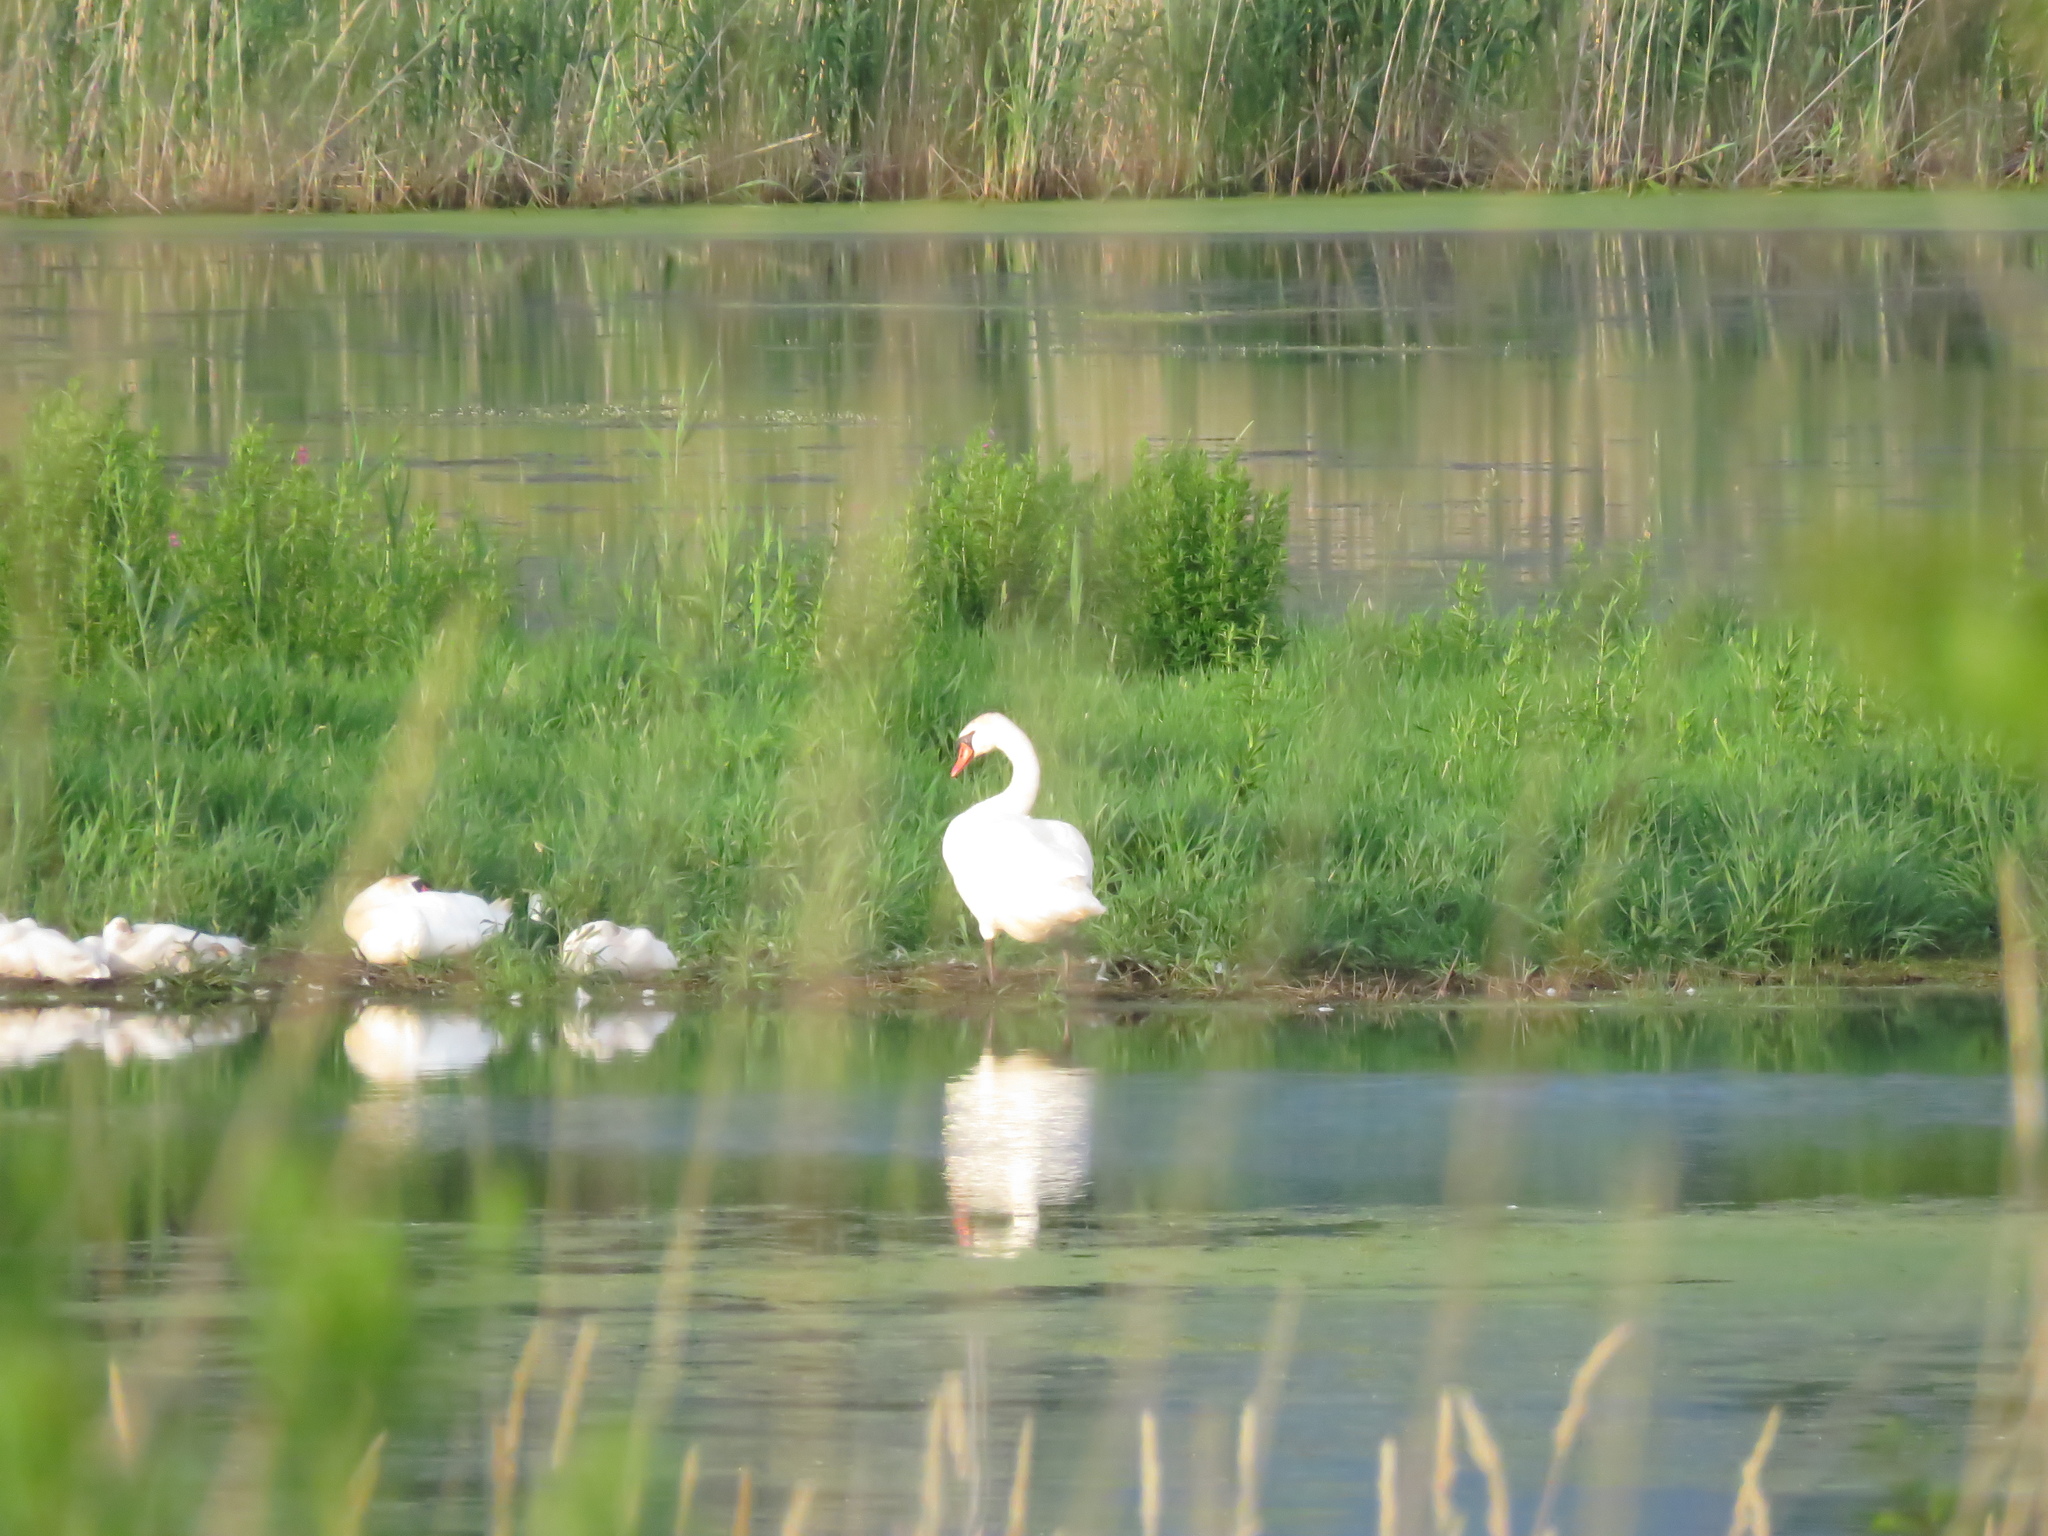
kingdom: Animalia
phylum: Chordata
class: Aves
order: Anseriformes
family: Anatidae
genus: Cygnus
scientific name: Cygnus olor
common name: Mute swan
